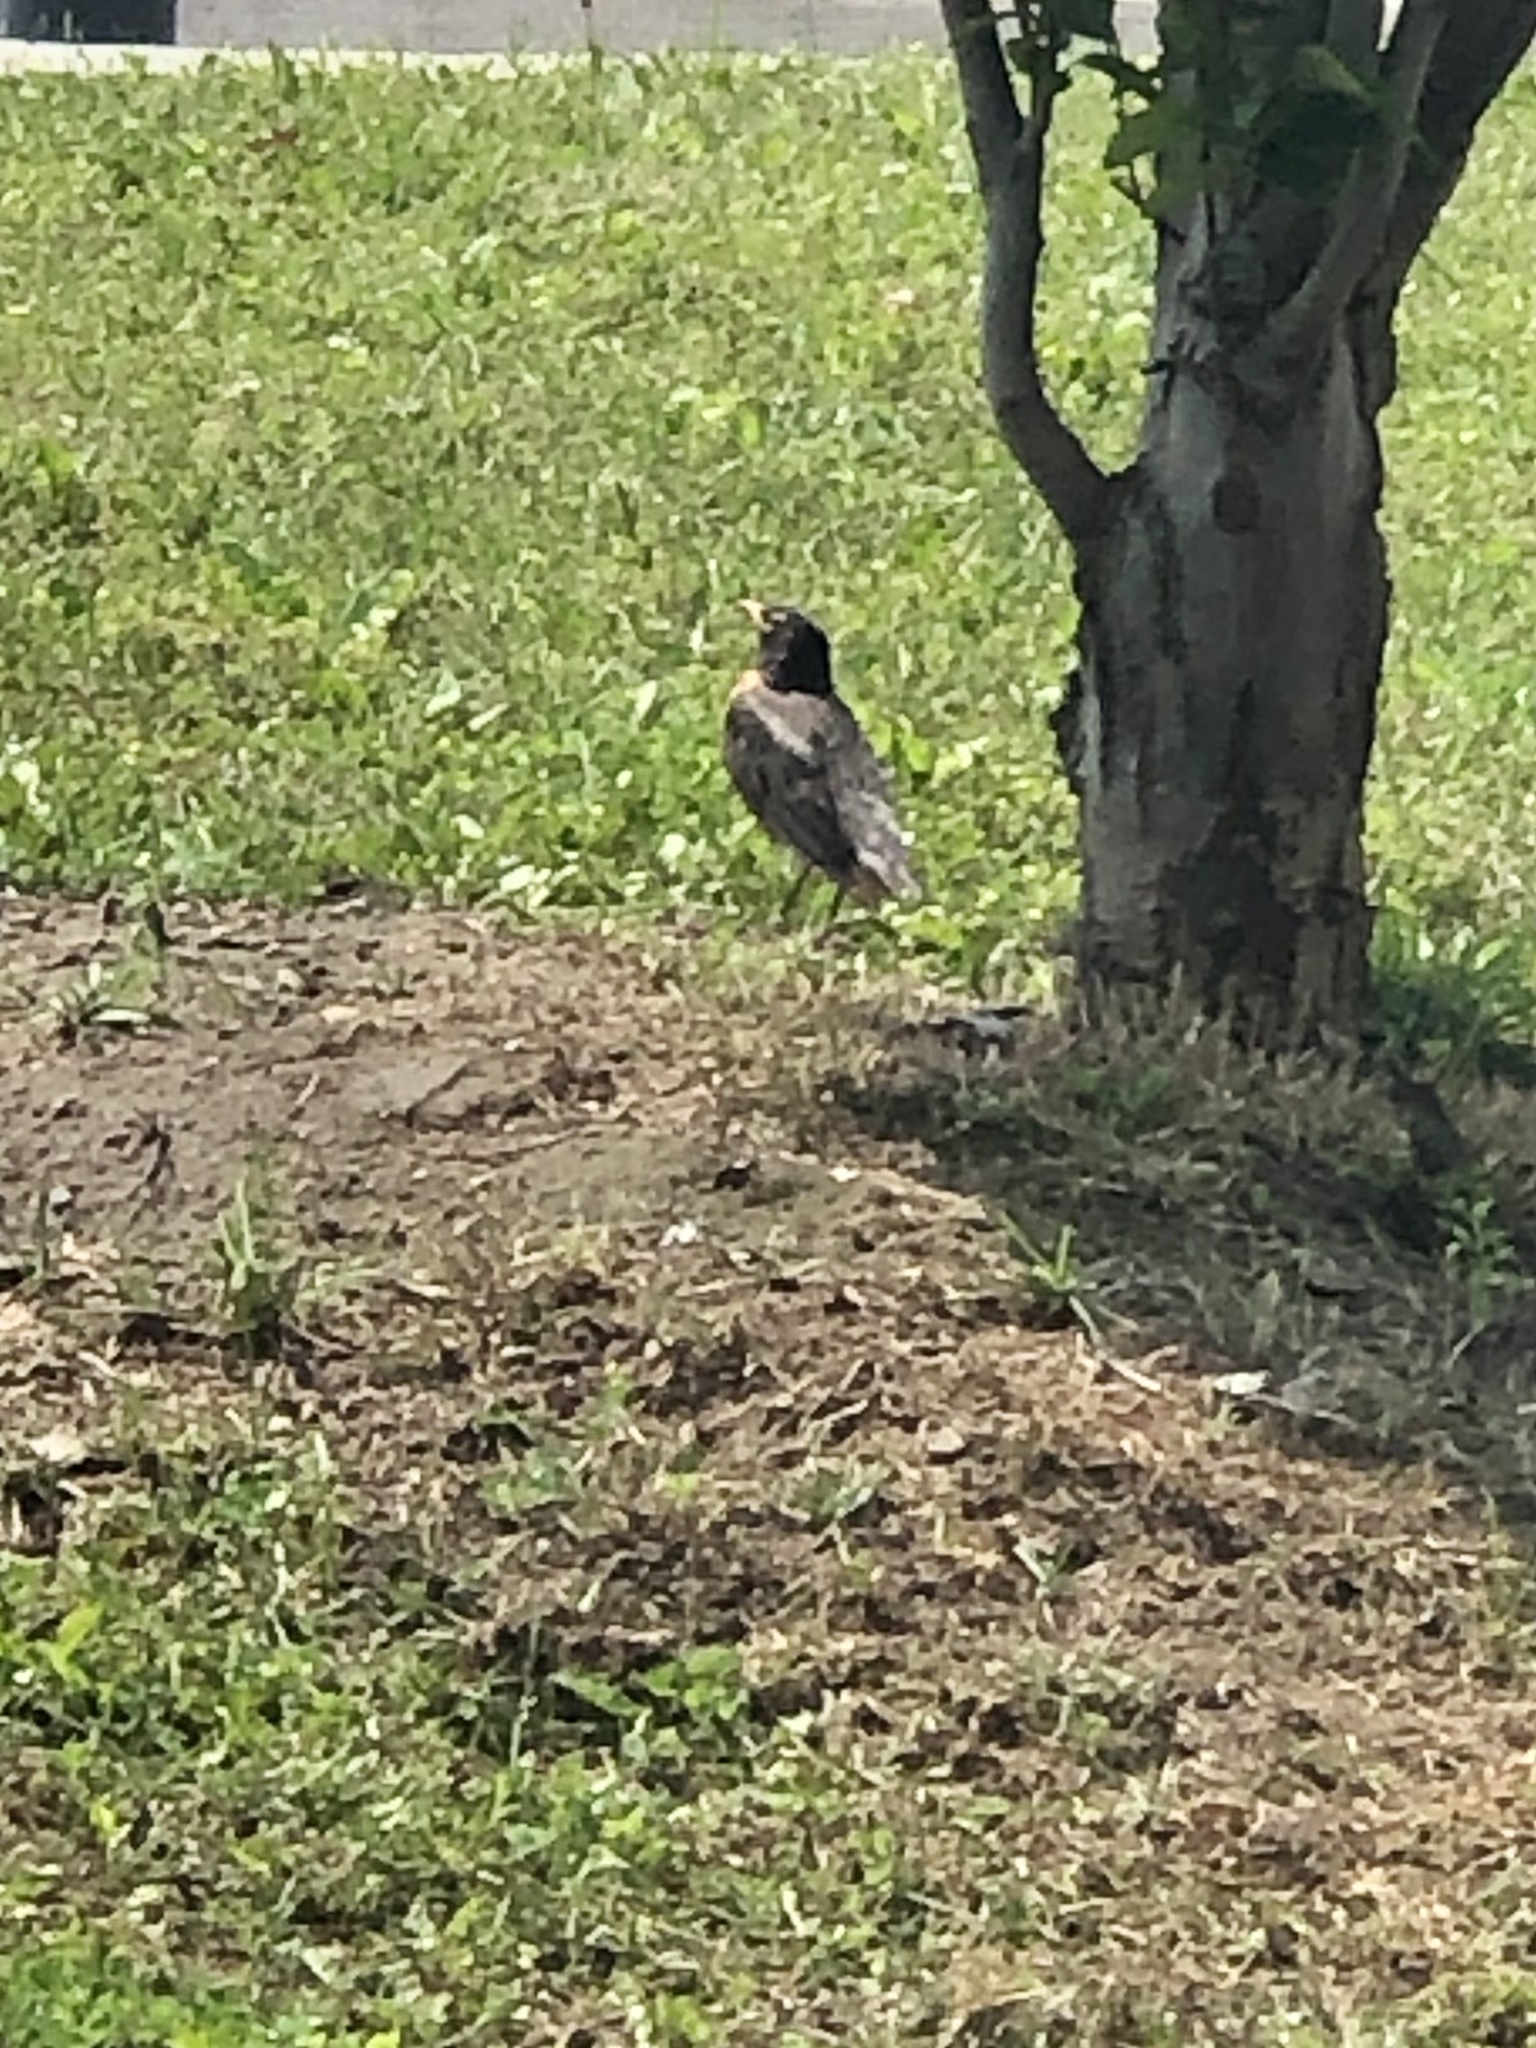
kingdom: Animalia
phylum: Chordata
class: Aves
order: Passeriformes
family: Turdidae
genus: Turdus
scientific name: Turdus migratorius
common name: American robin
